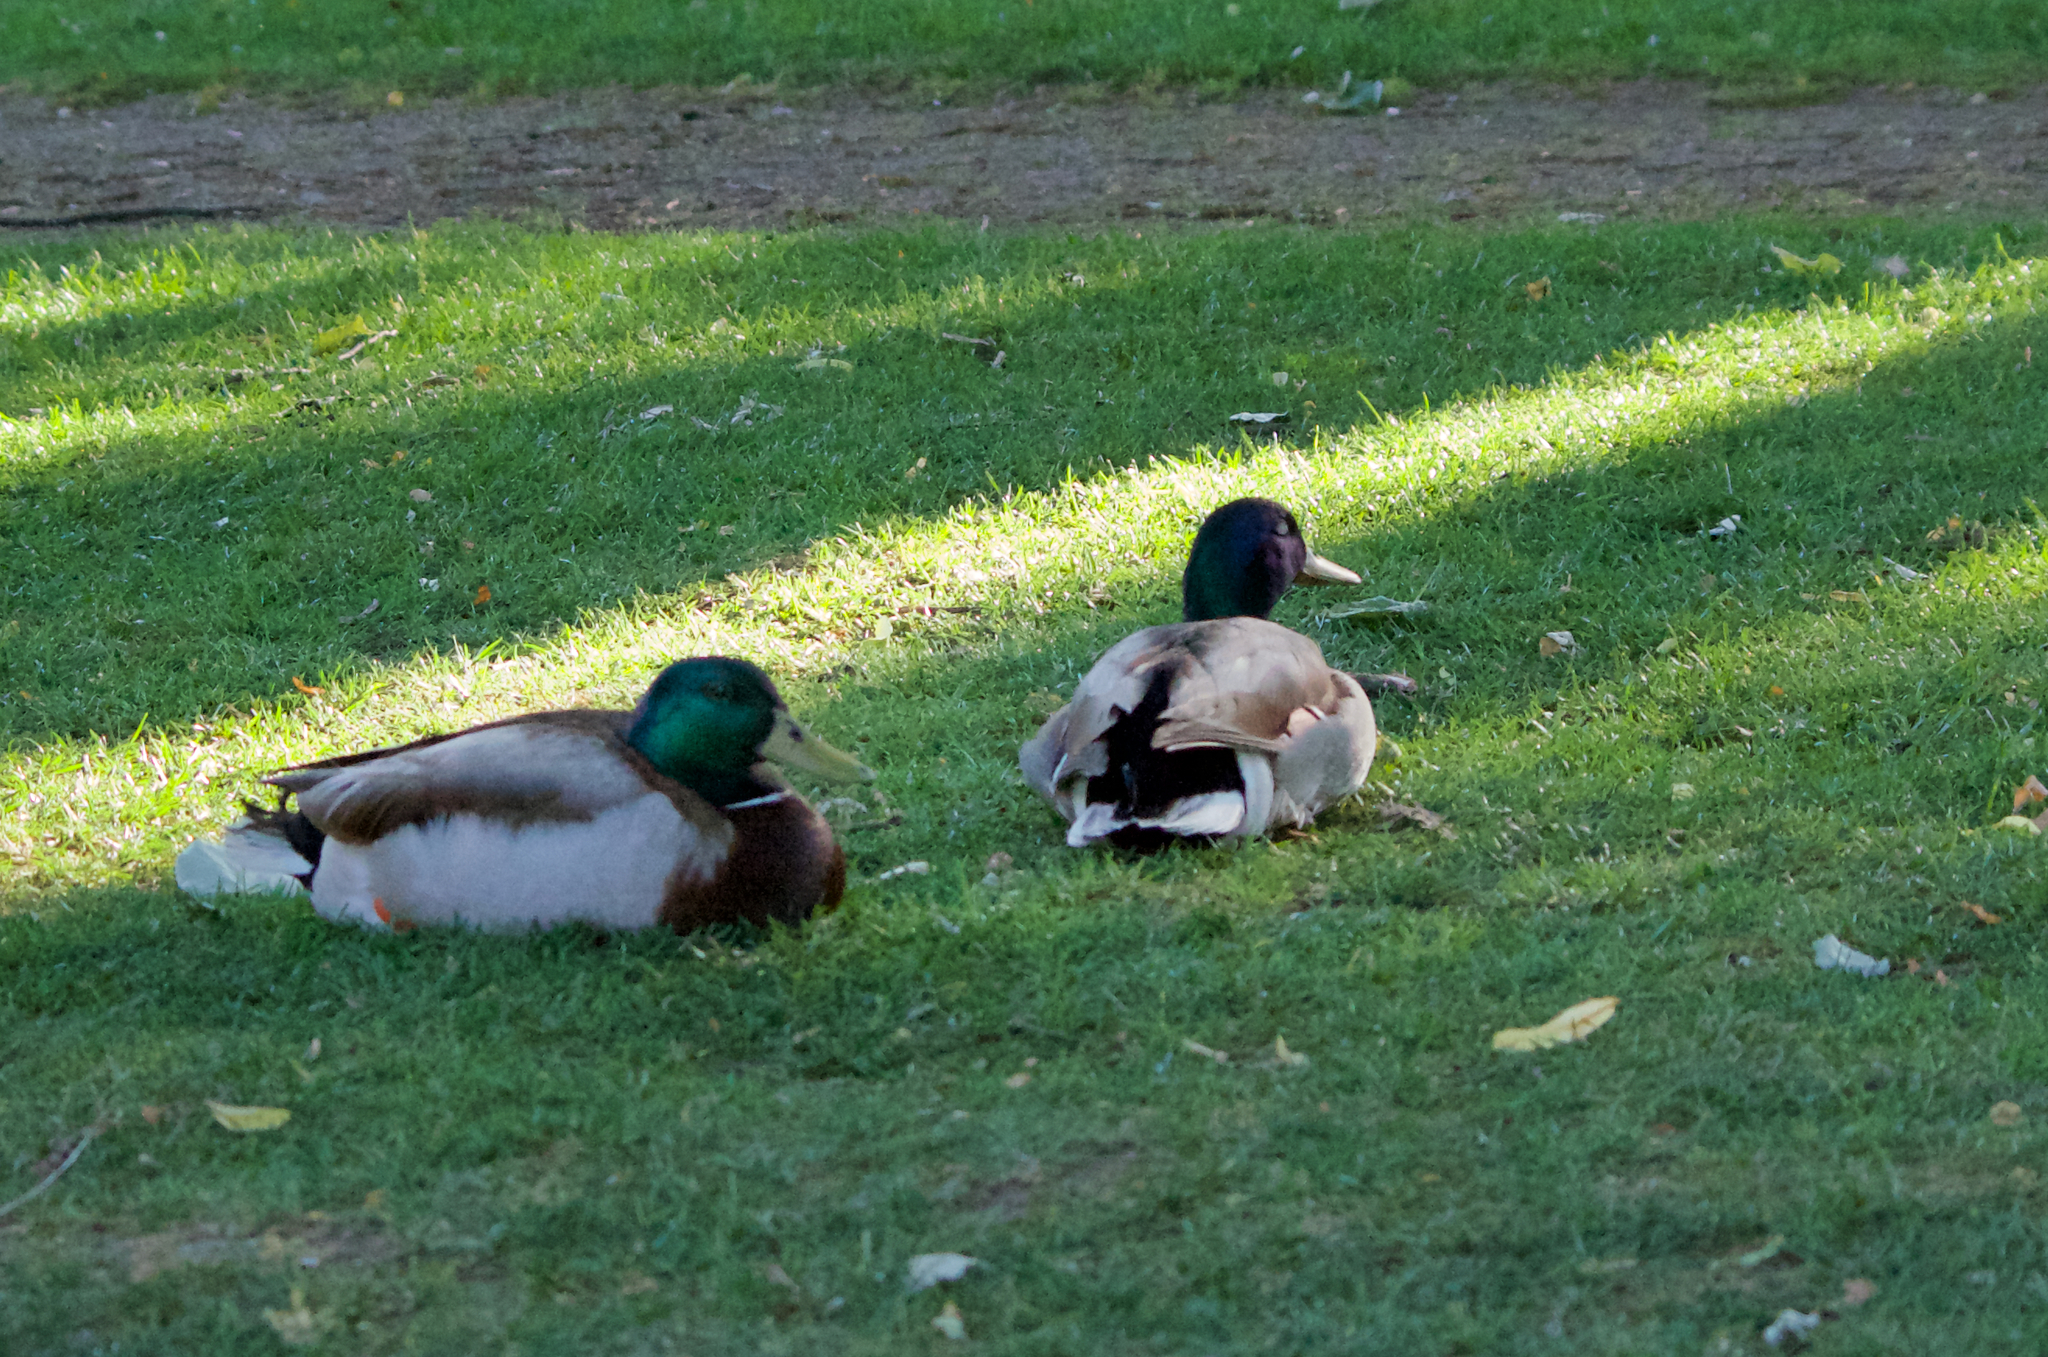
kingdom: Animalia
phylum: Chordata
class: Aves
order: Anseriformes
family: Anatidae
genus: Anas
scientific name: Anas platyrhynchos
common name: Mallard
